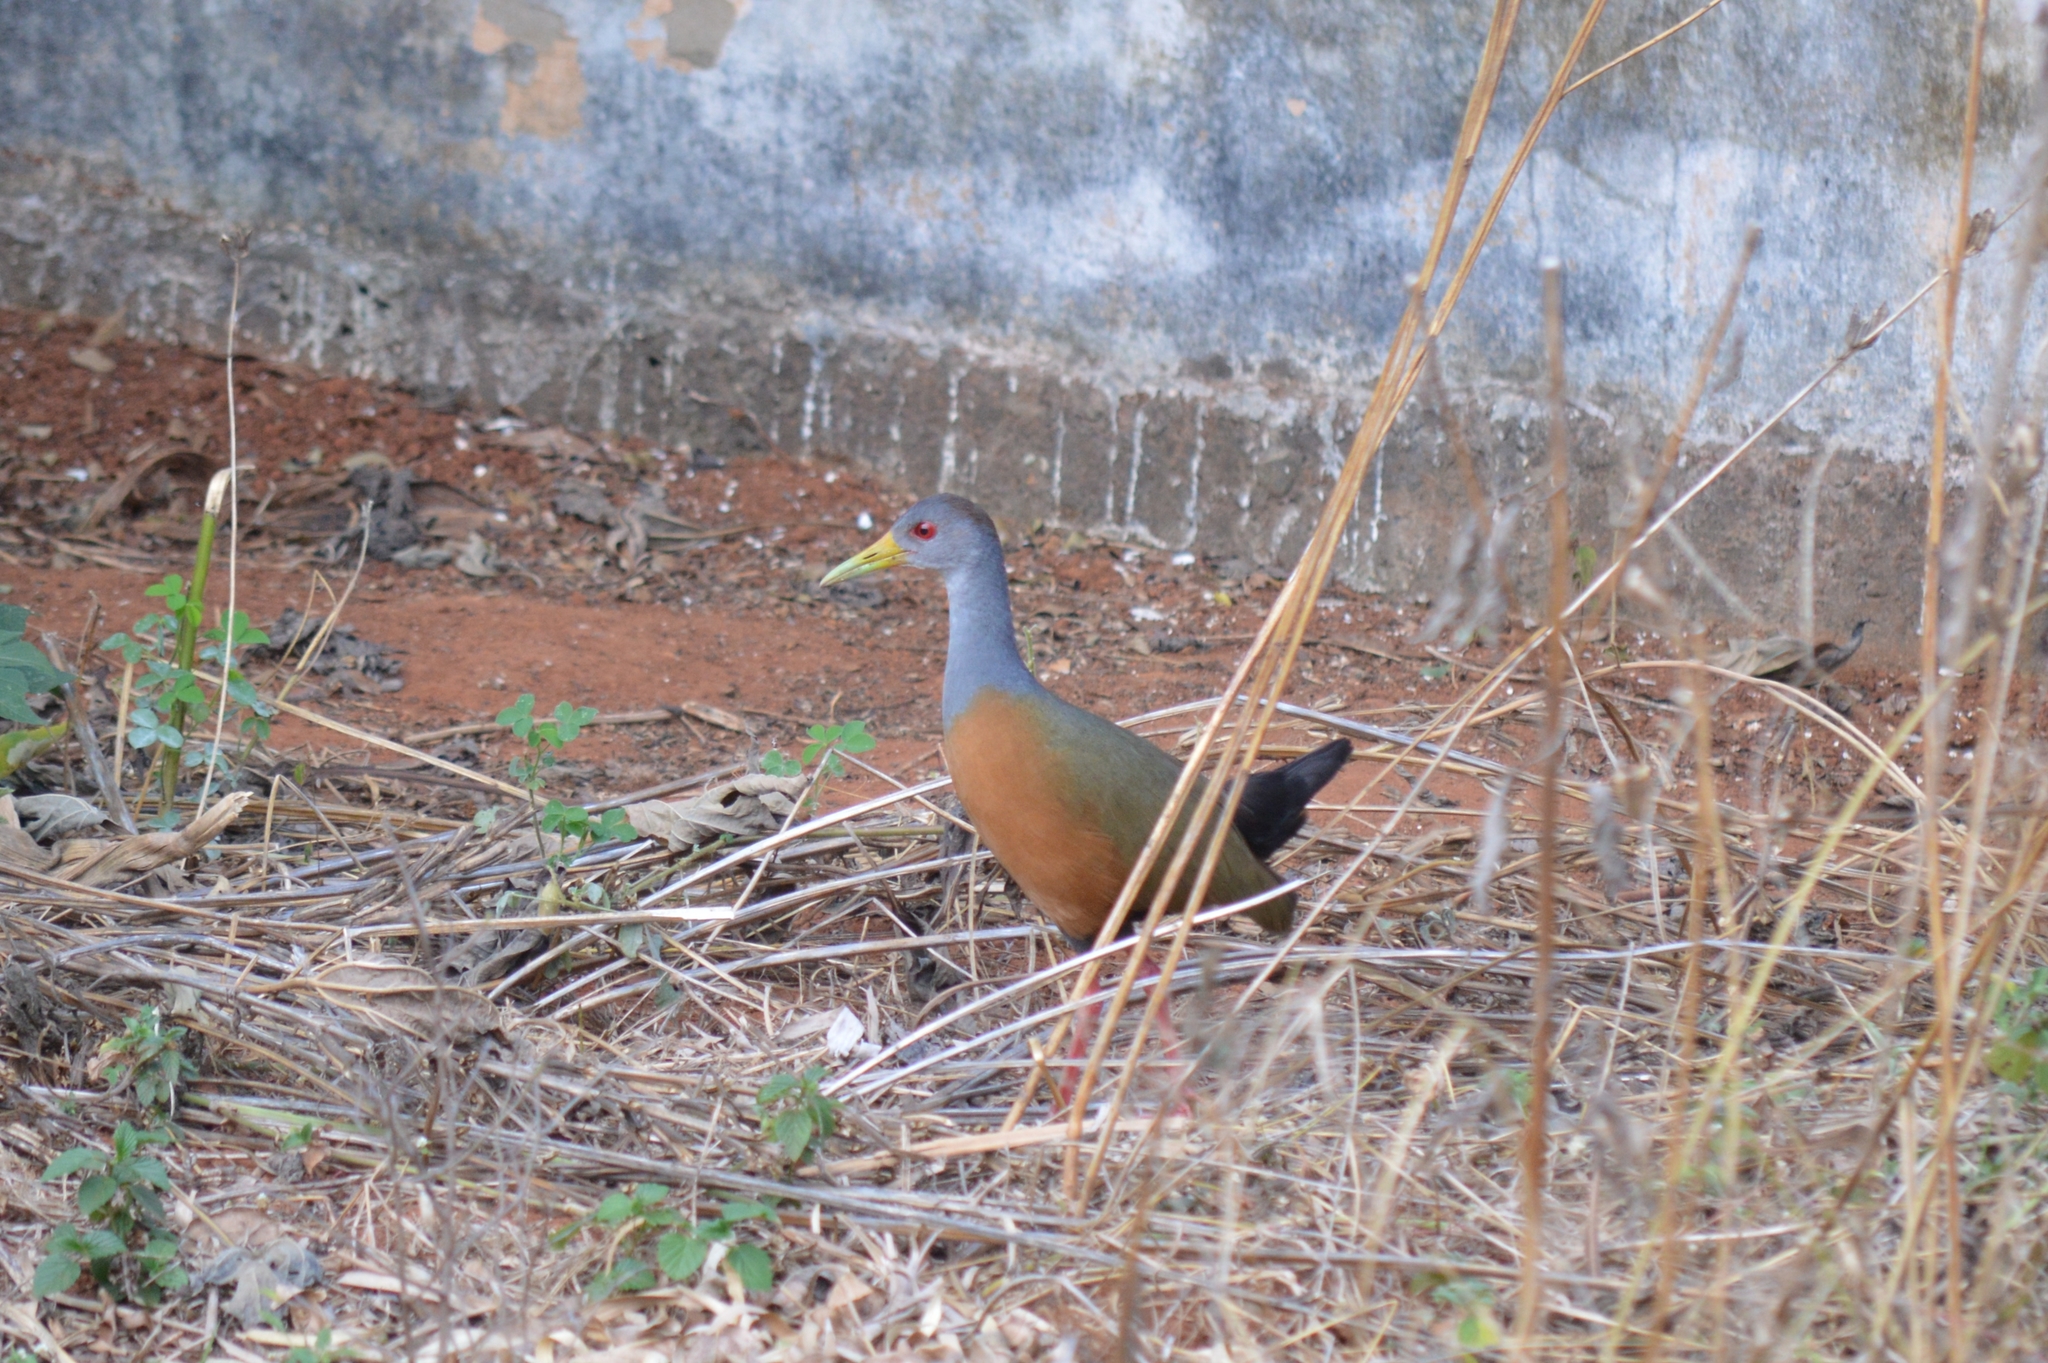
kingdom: Animalia
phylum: Chordata
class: Aves
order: Gruiformes
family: Rallidae
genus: Aramides
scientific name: Aramides cajanea
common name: Gray-necked wood-rail
